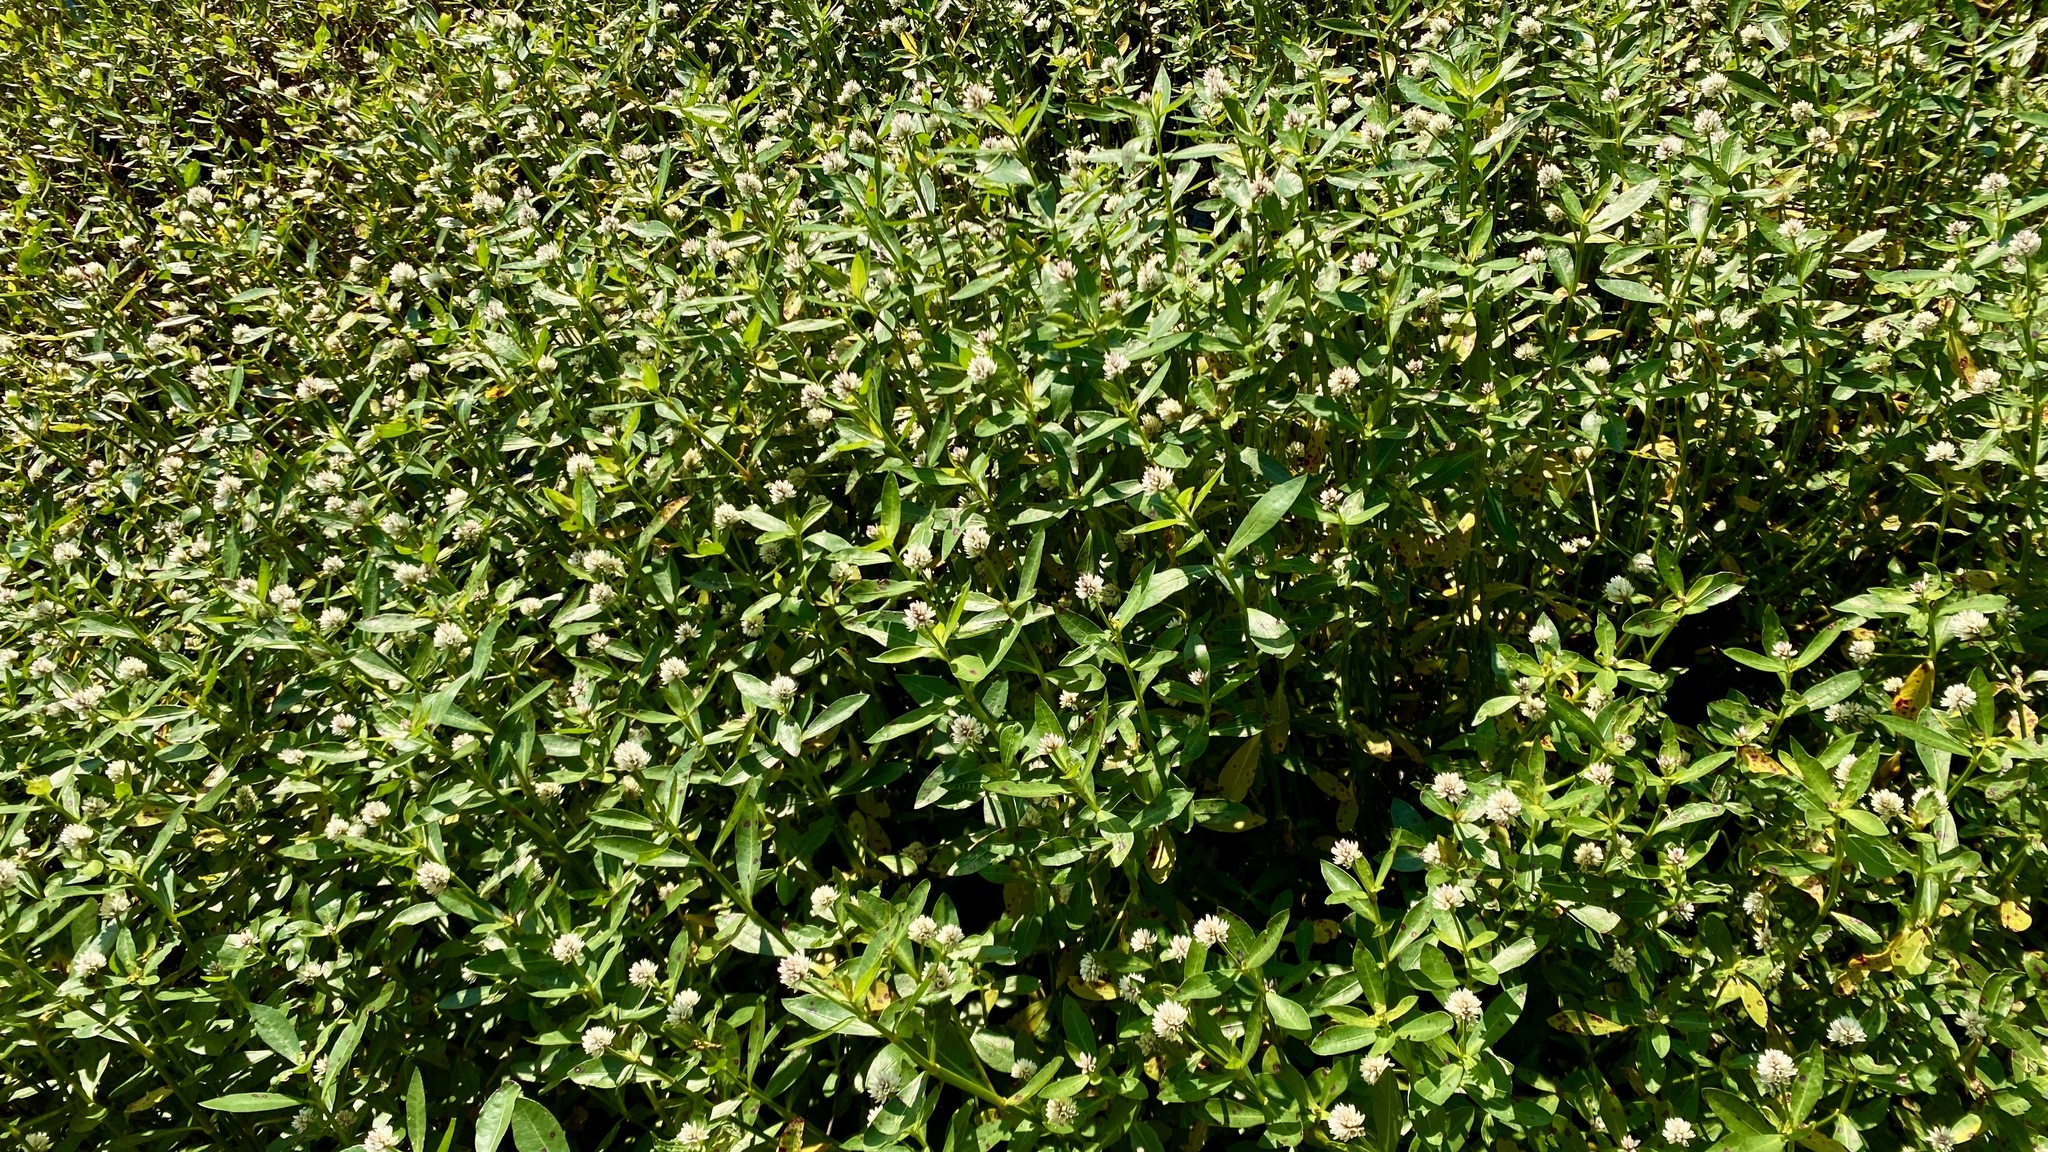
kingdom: Plantae
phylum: Tracheophyta
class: Magnoliopsida
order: Caryophyllales
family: Amaranthaceae
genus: Alternanthera
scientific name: Alternanthera philoxeroides
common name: Alligatorweed
